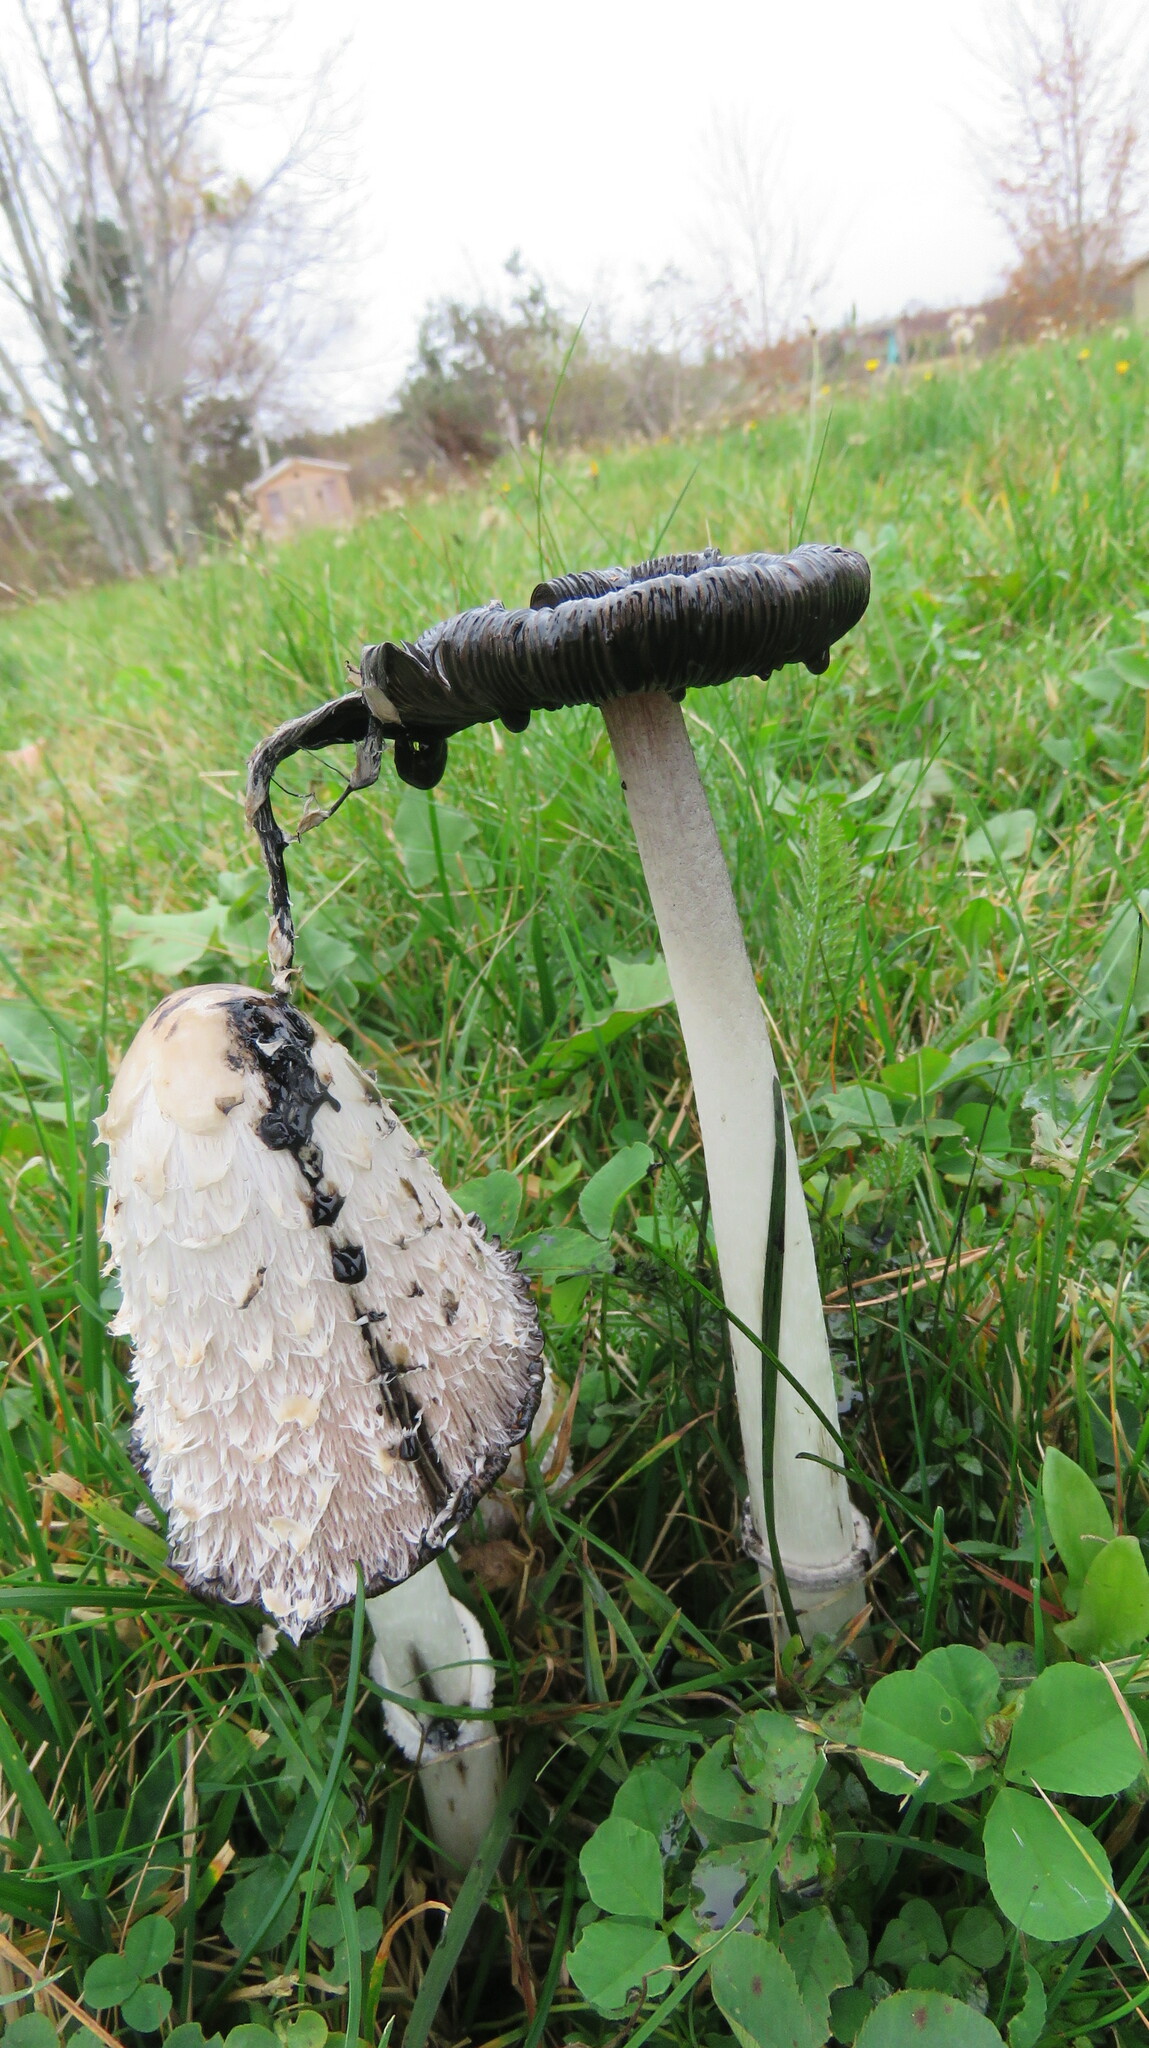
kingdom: Fungi
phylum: Basidiomycota
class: Agaricomycetes
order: Agaricales
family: Agaricaceae
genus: Coprinus
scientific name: Coprinus comatus
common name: Lawyer's wig
